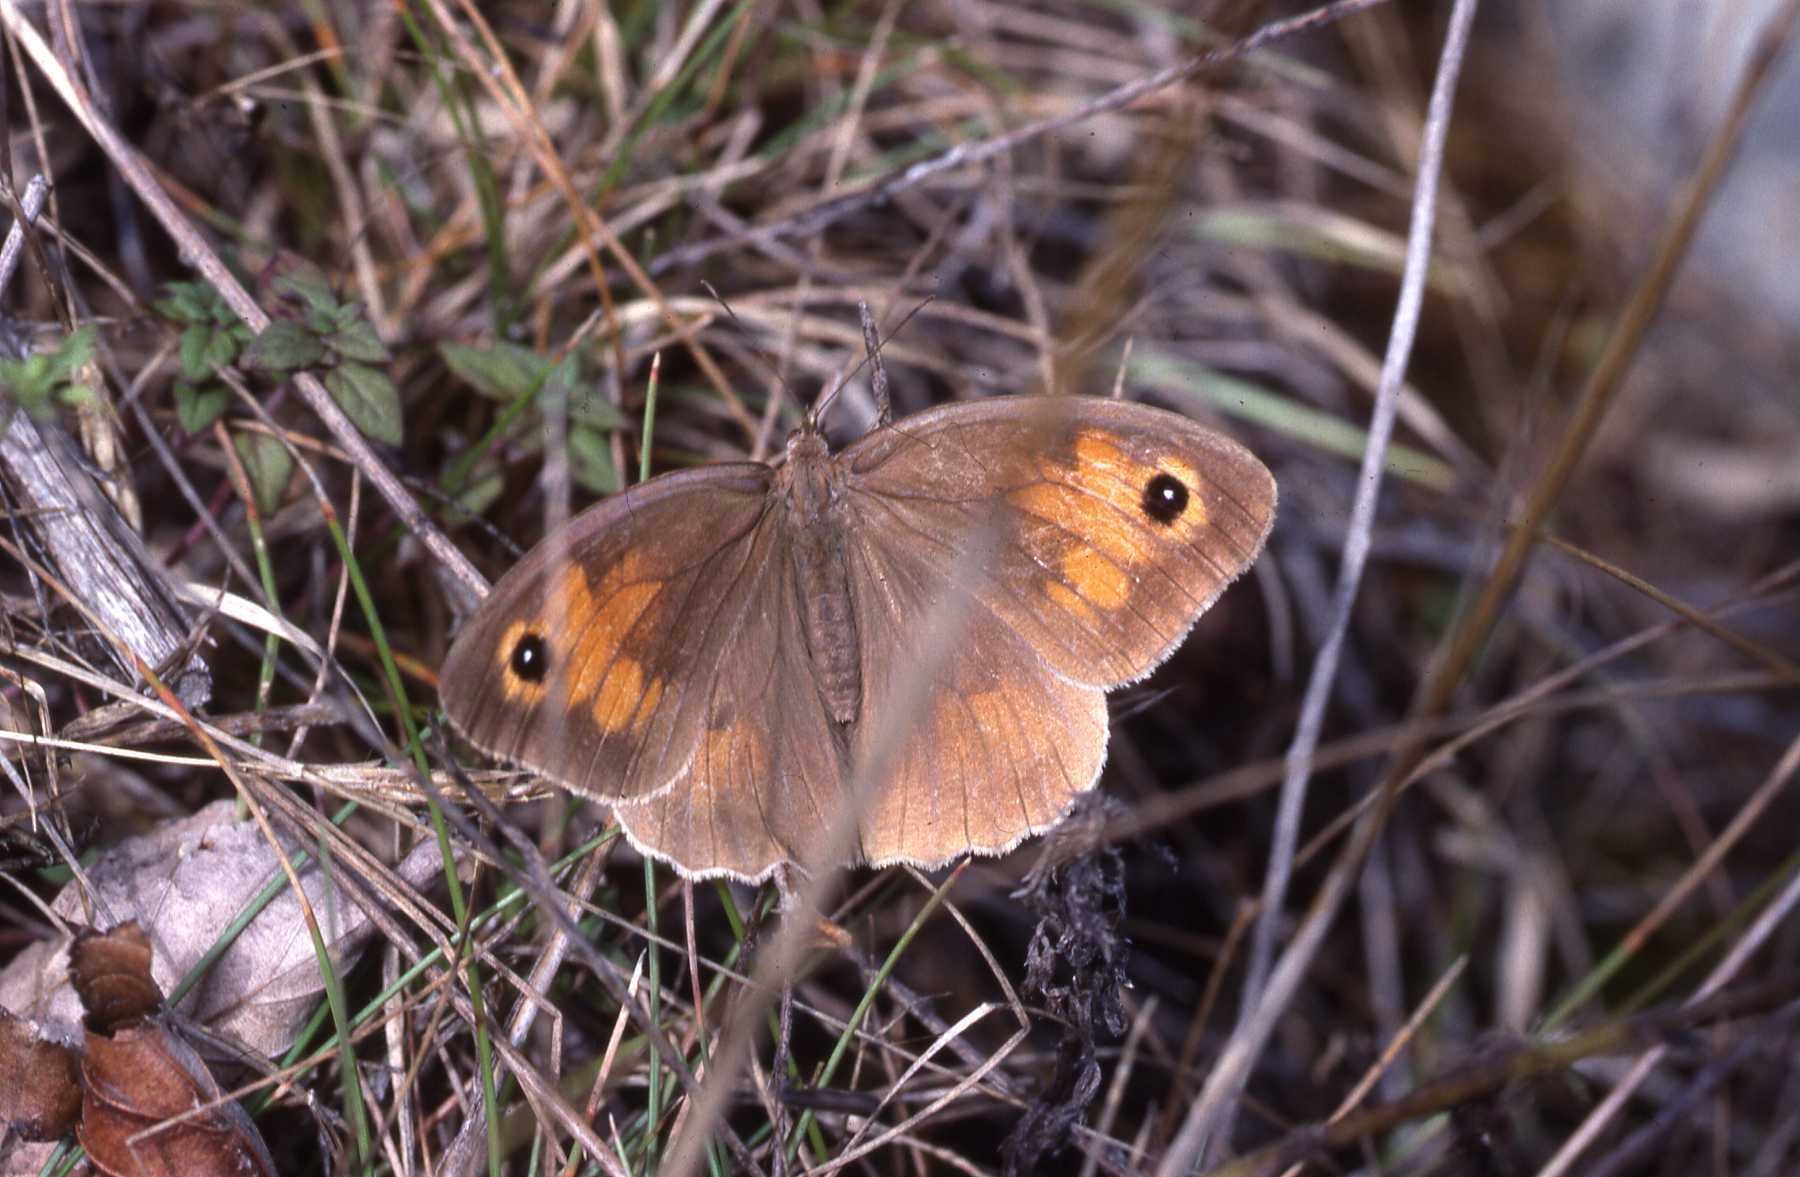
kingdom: Animalia
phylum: Arthropoda
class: Insecta
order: Lepidoptera
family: Nymphalidae
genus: Maniola
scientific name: Maniola jurtina
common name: Meadow brown
